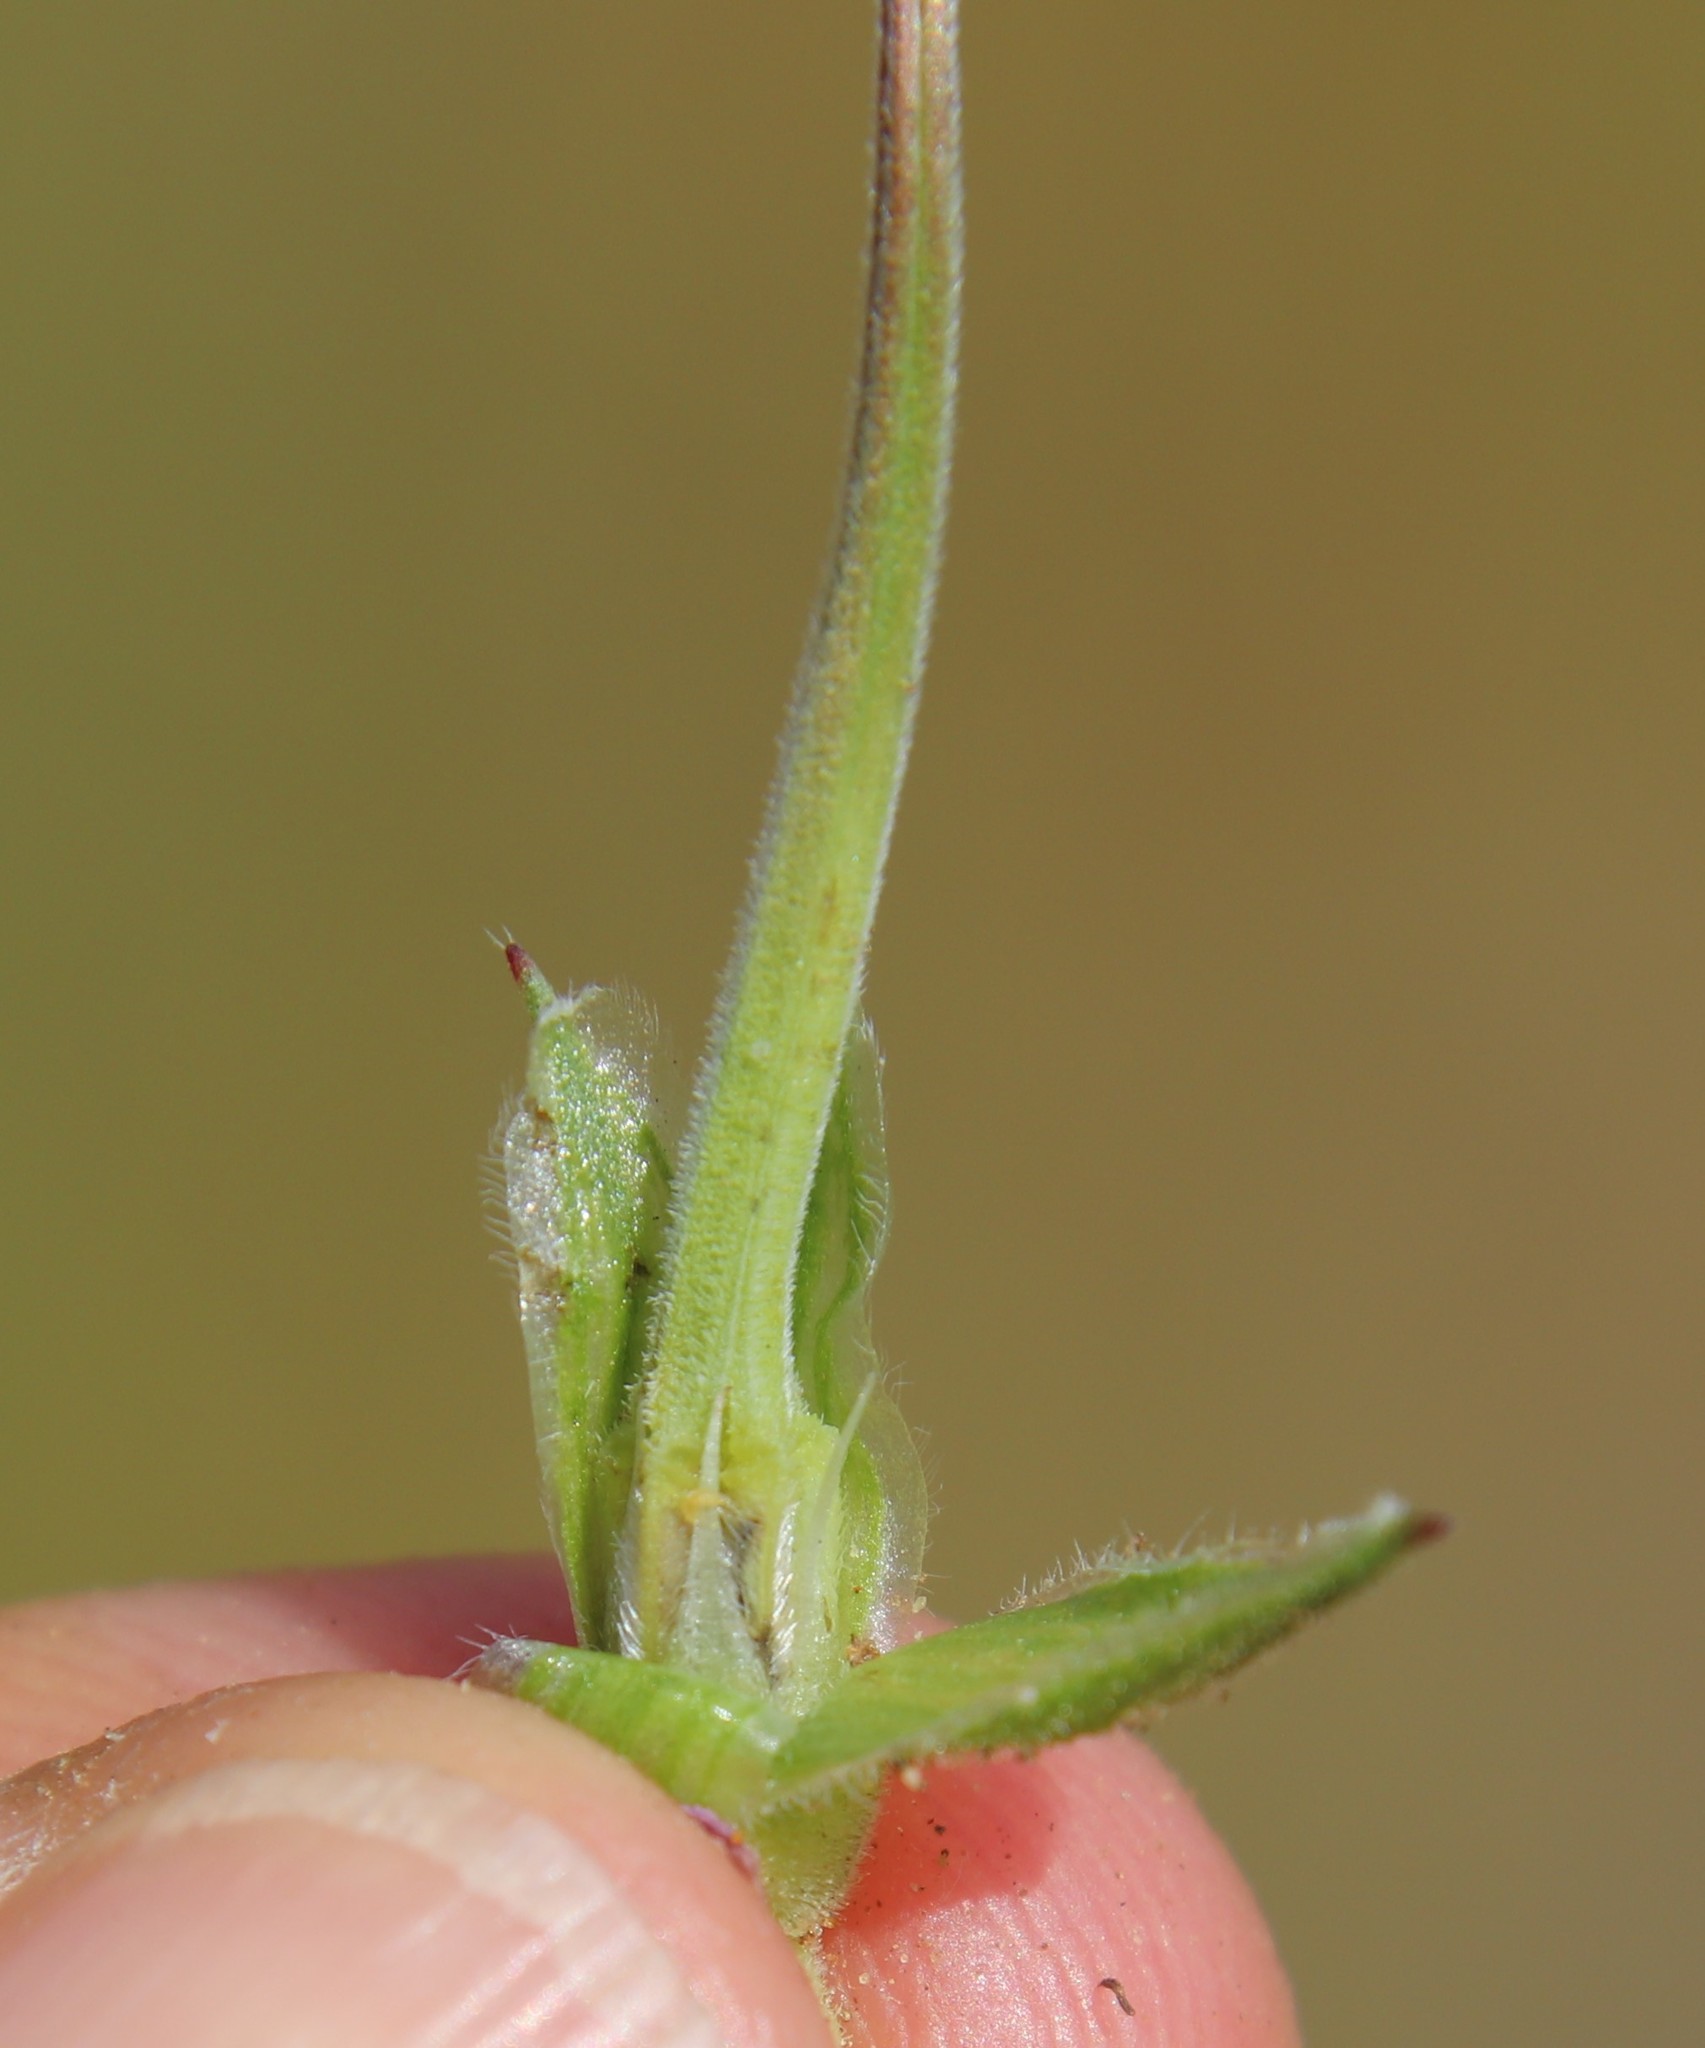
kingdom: Plantae
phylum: Tracheophyta
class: Magnoliopsida
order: Geraniales
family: Geraniaceae
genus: Erodium
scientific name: Erodium botrys
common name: Mediterranean stork's-bill
